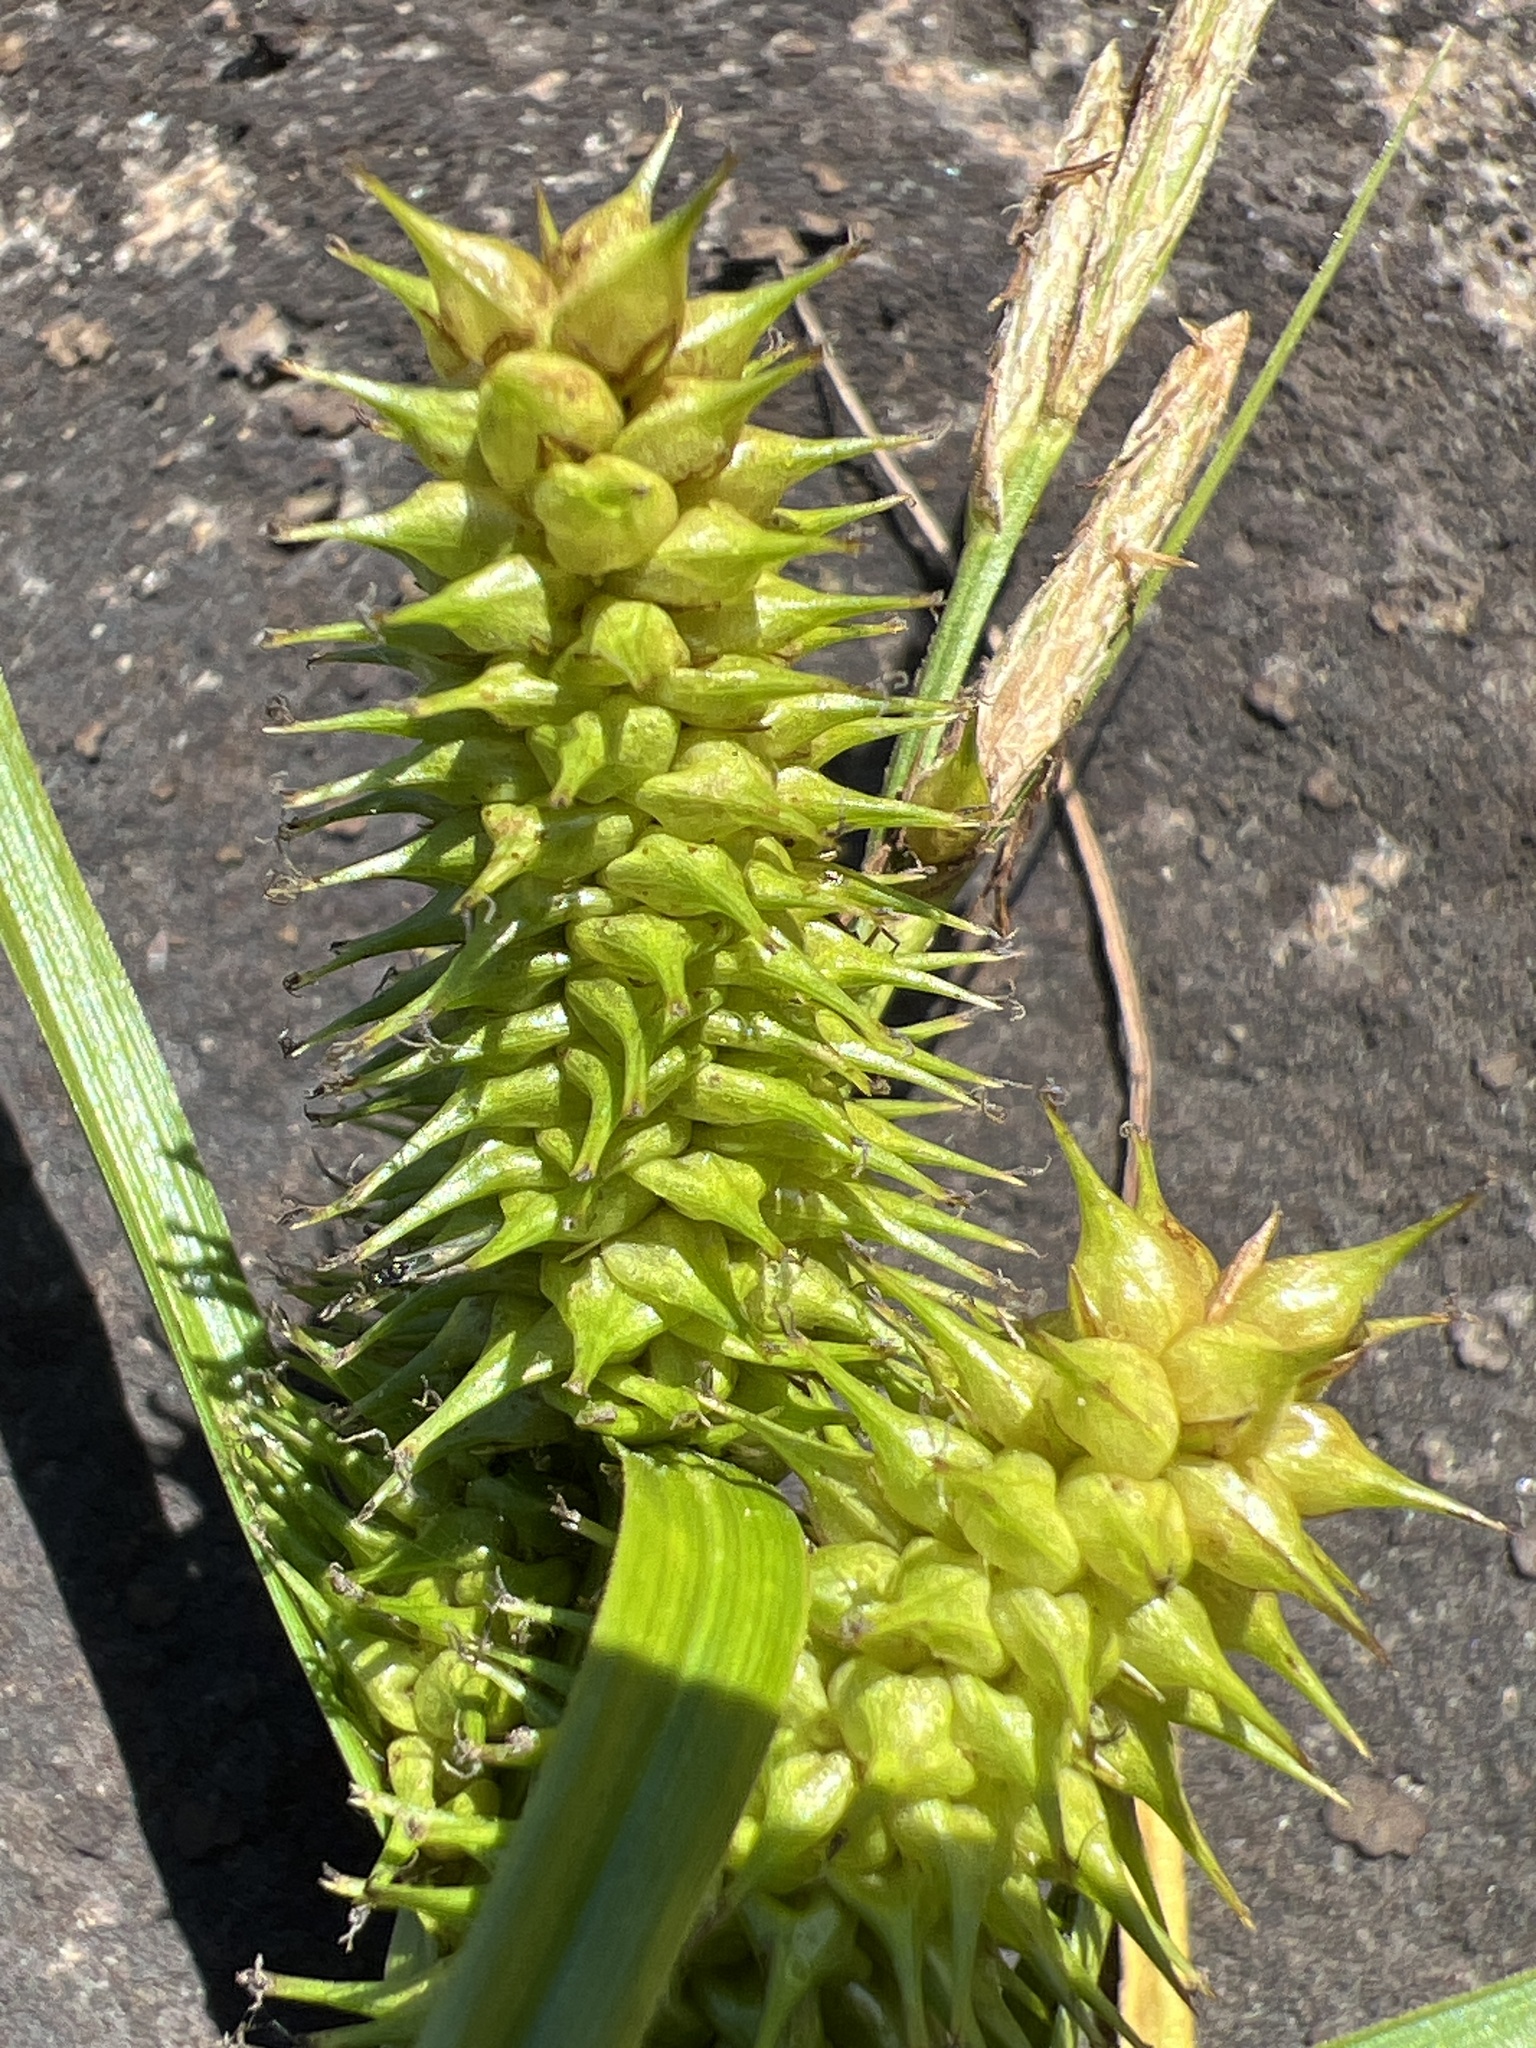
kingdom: Plantae
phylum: Tracheophyta
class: Liliopsida
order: Poales
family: Cyperaceae
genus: Carex
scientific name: Carex retrorsa
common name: Knot-sheath sedge
